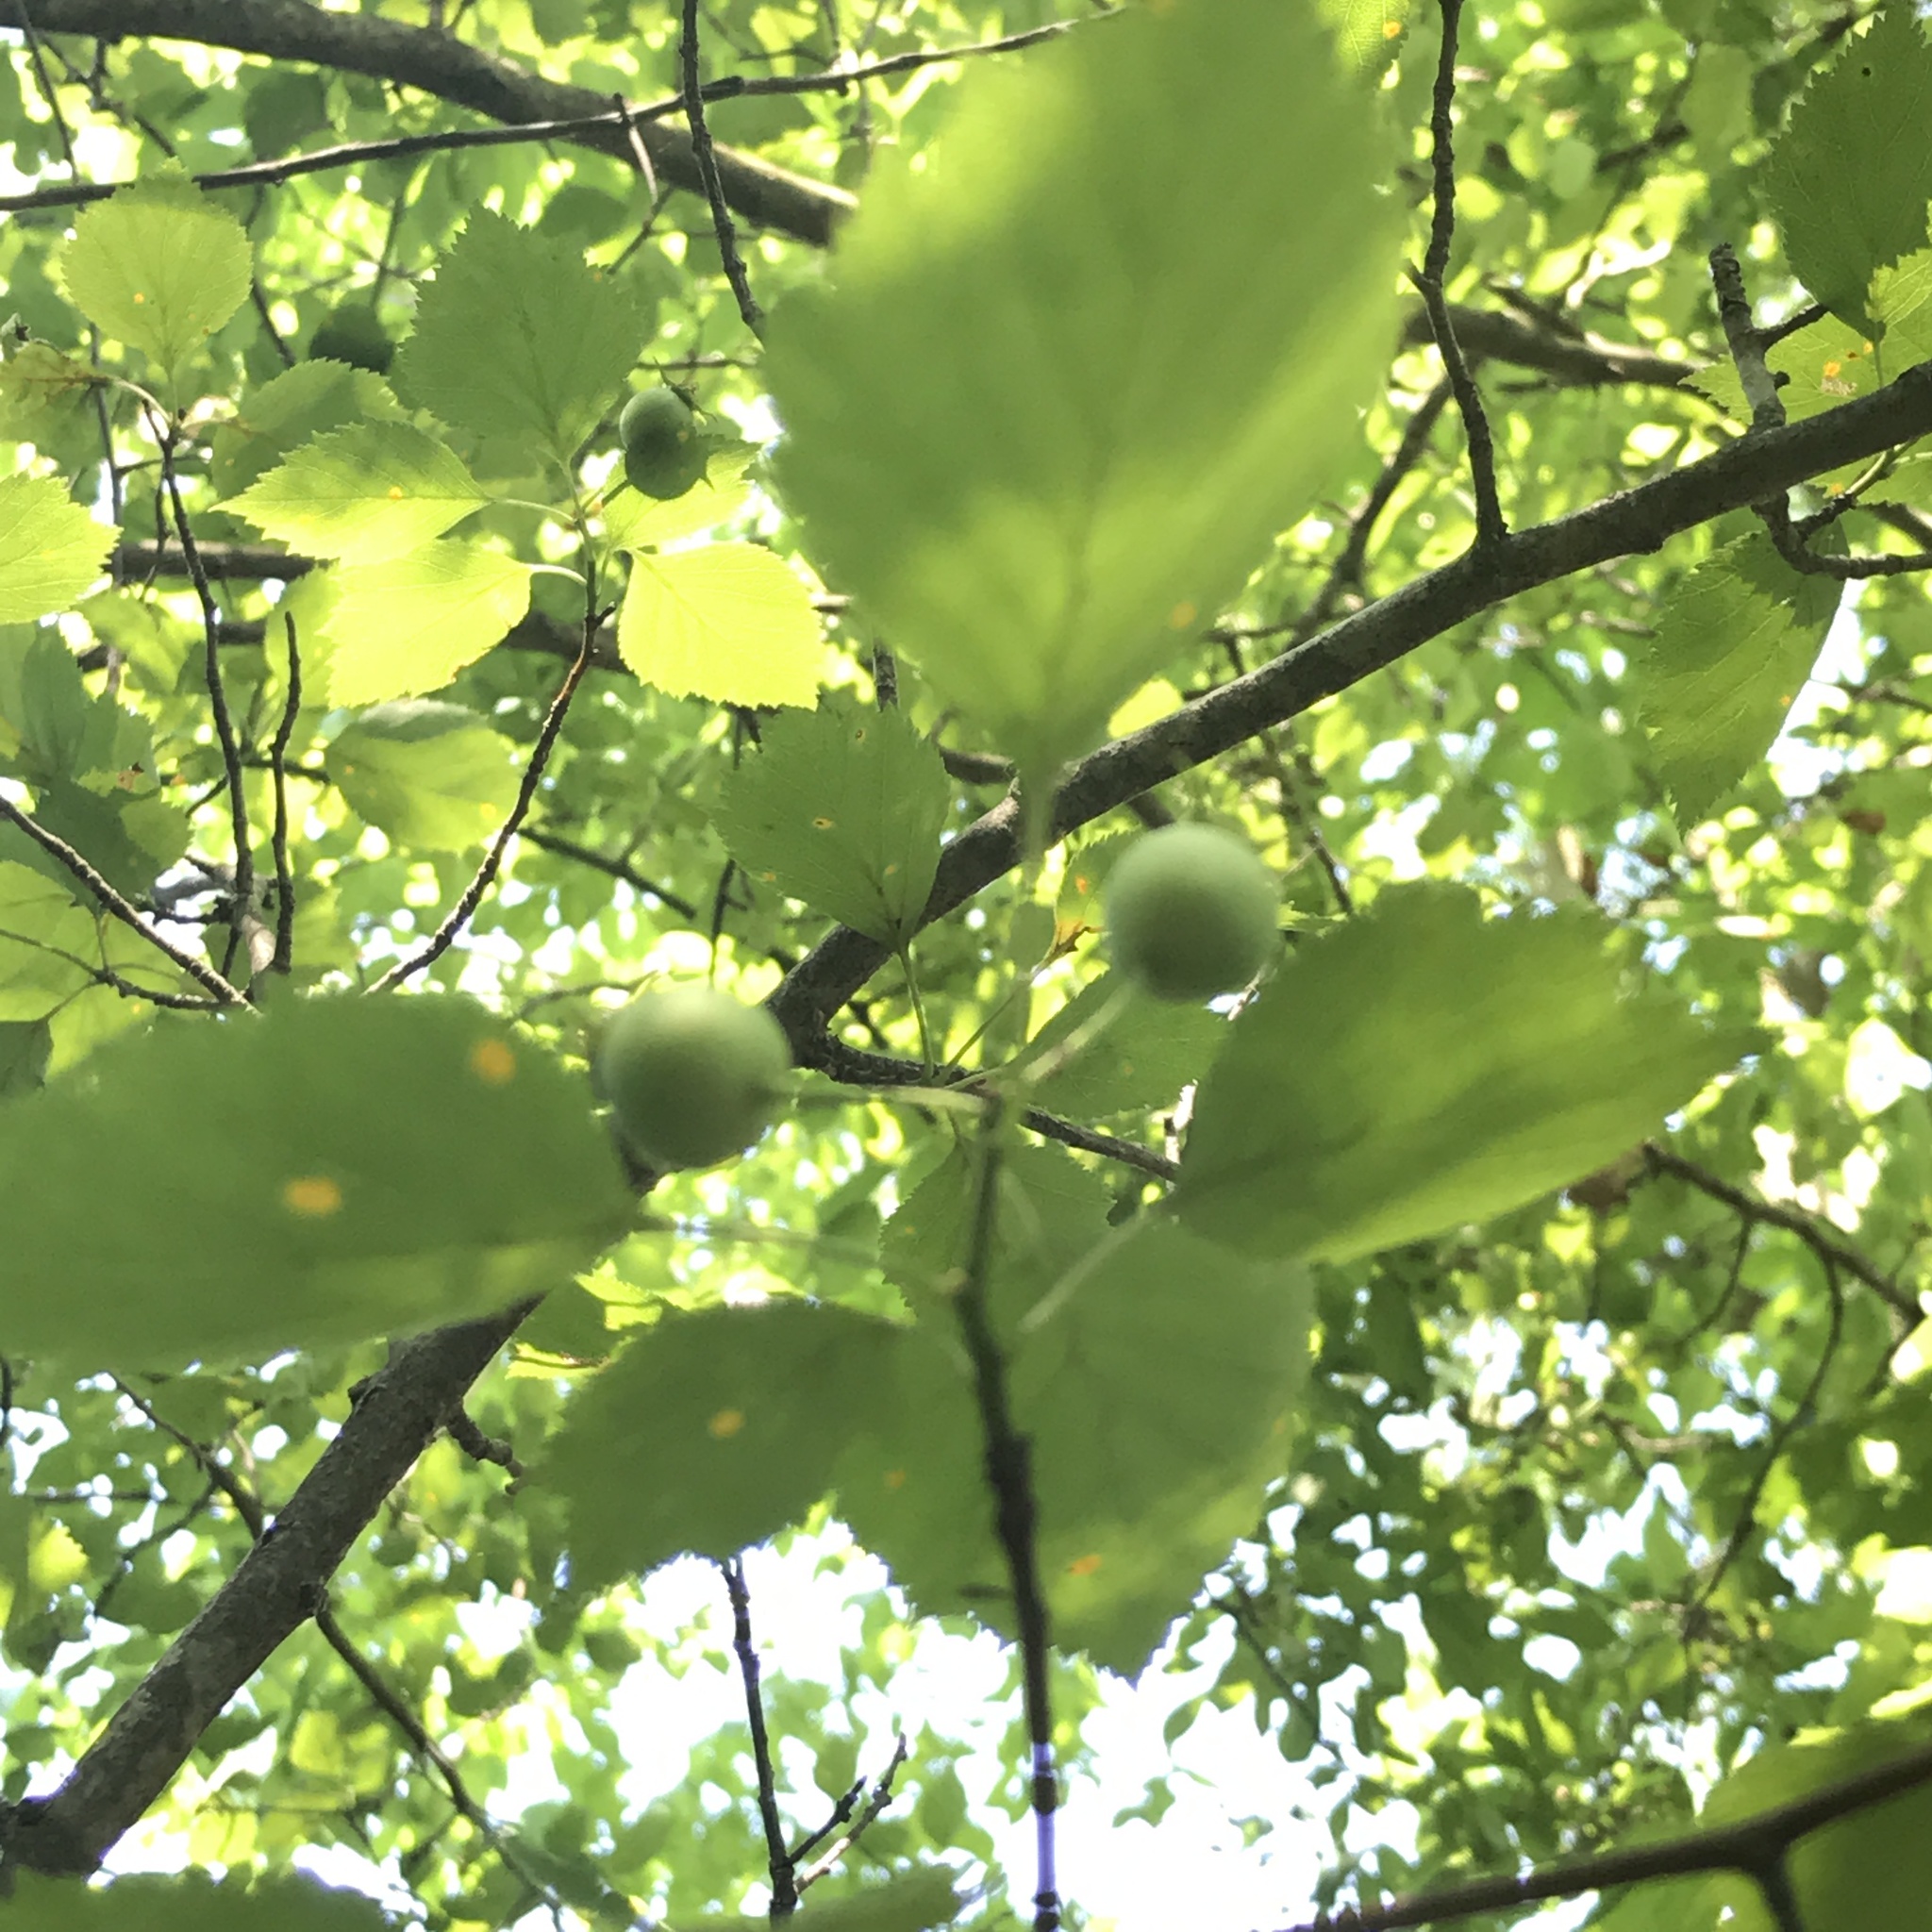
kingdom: Plantae
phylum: Tracheophyta
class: Magnoliopsida
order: Rosales
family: Rosaceae
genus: Crataegus
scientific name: Crataegus pruinosa
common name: Waxy-fruit hawthorn
